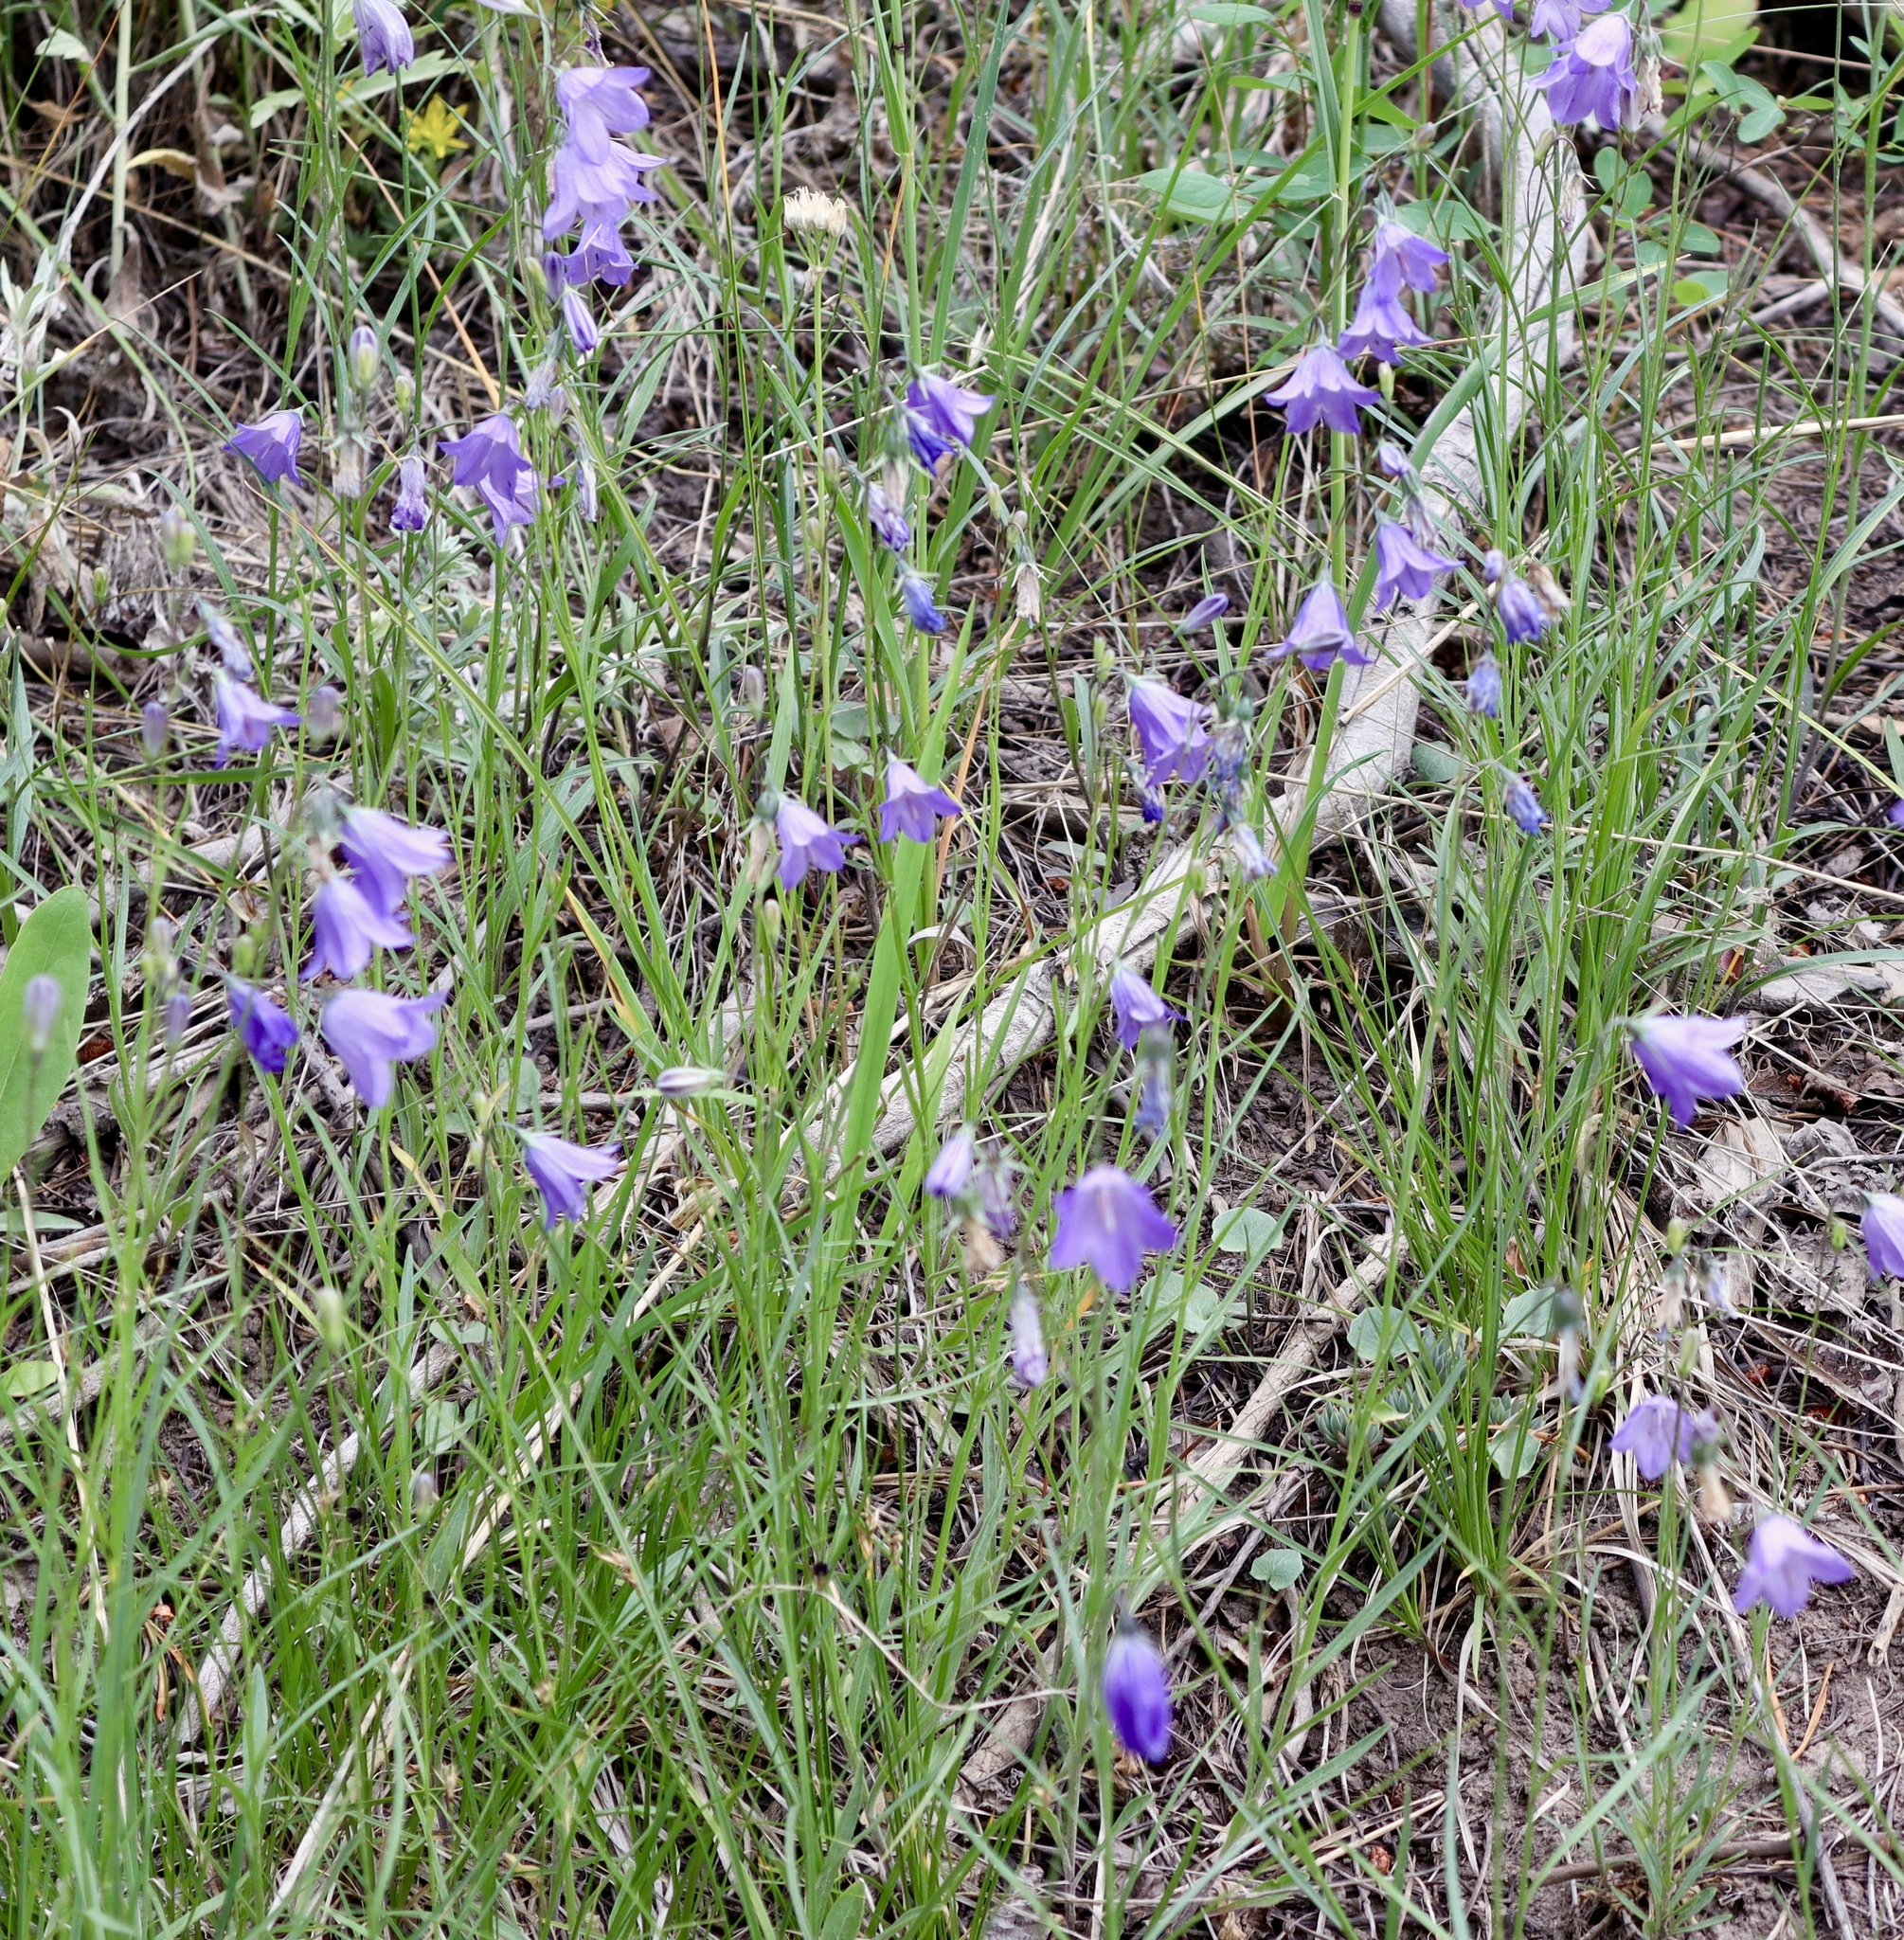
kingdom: Plantae
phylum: Tracheophyta
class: Magnoliopsida
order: Asterales
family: Campanulaceae
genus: Campanula
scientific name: Campanula petiolata
